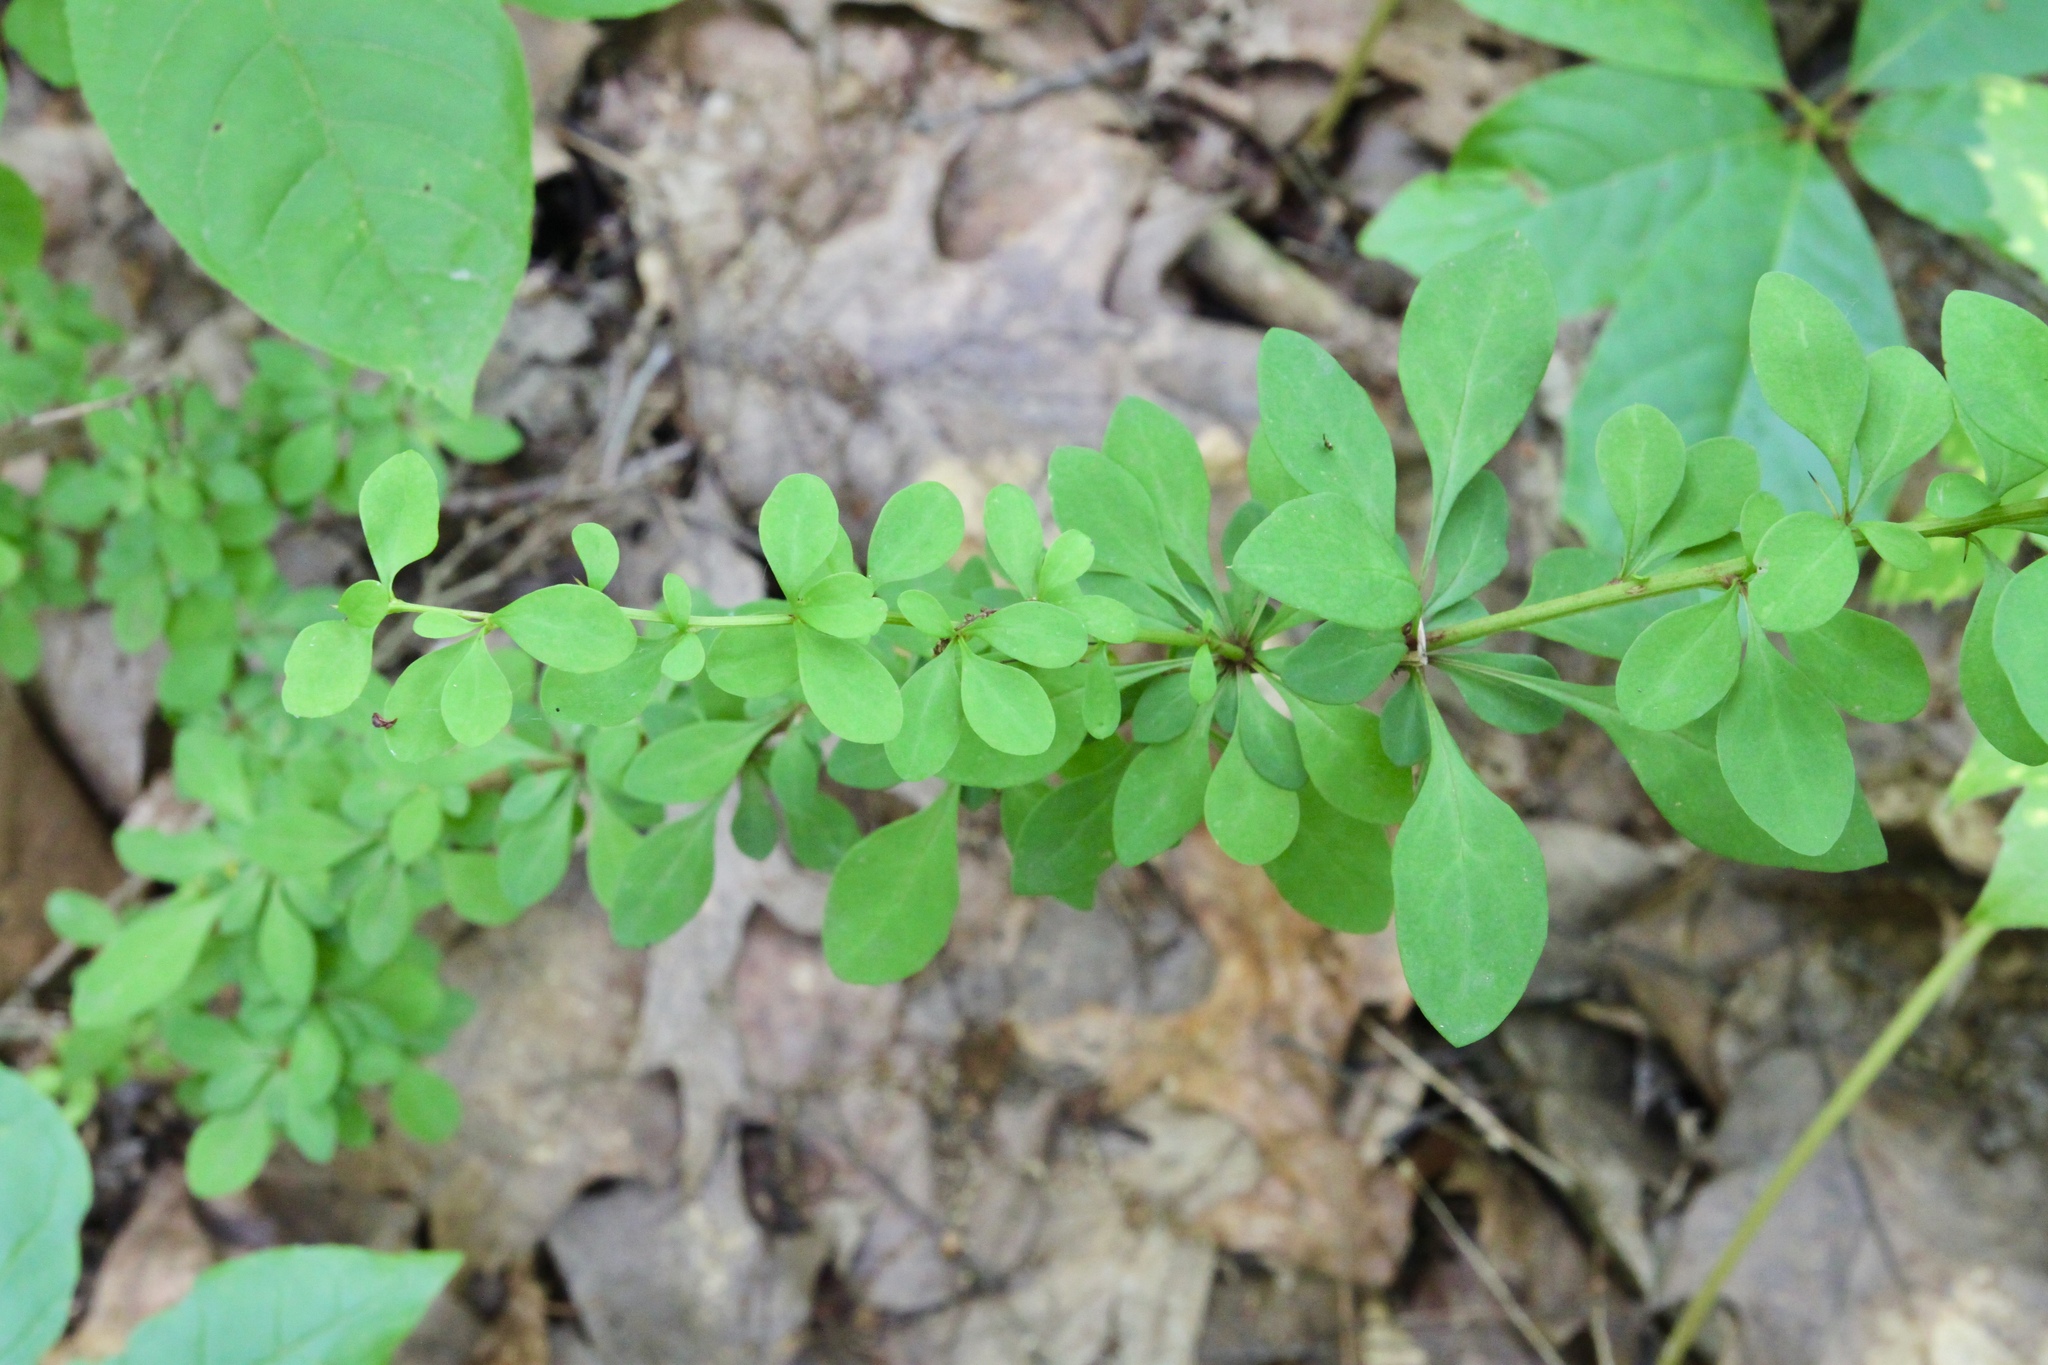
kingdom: Plantae
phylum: Tracheophyta
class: Magnoliopsida
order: Ranunculales
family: Berberidaceae
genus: Berberis
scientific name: Berberis thunbergii
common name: Japanese barberry
